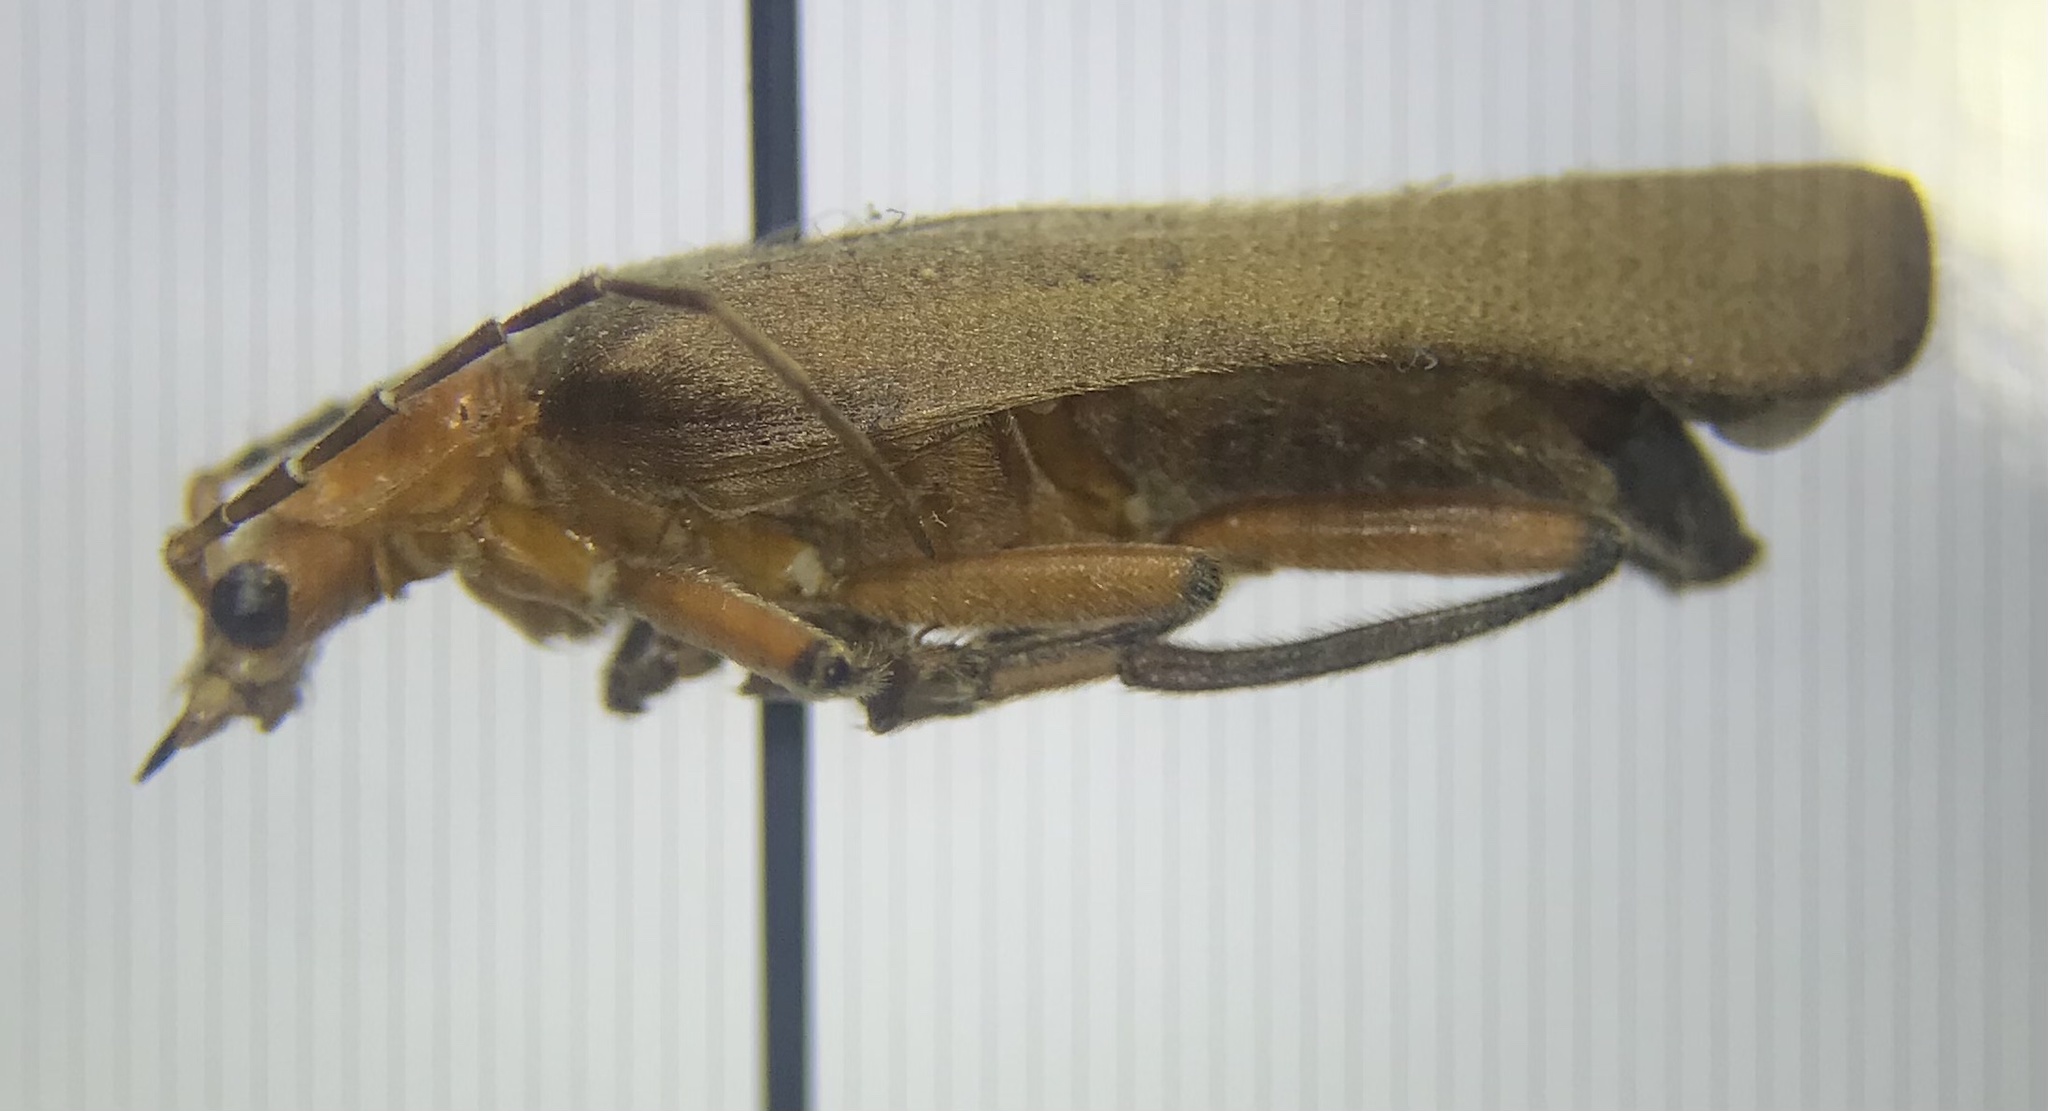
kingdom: Animalia
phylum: Arthropoda
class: Insecta
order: Coleoptera
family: Cantharidae
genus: Pacificanthia
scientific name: Pacificanthia consors
